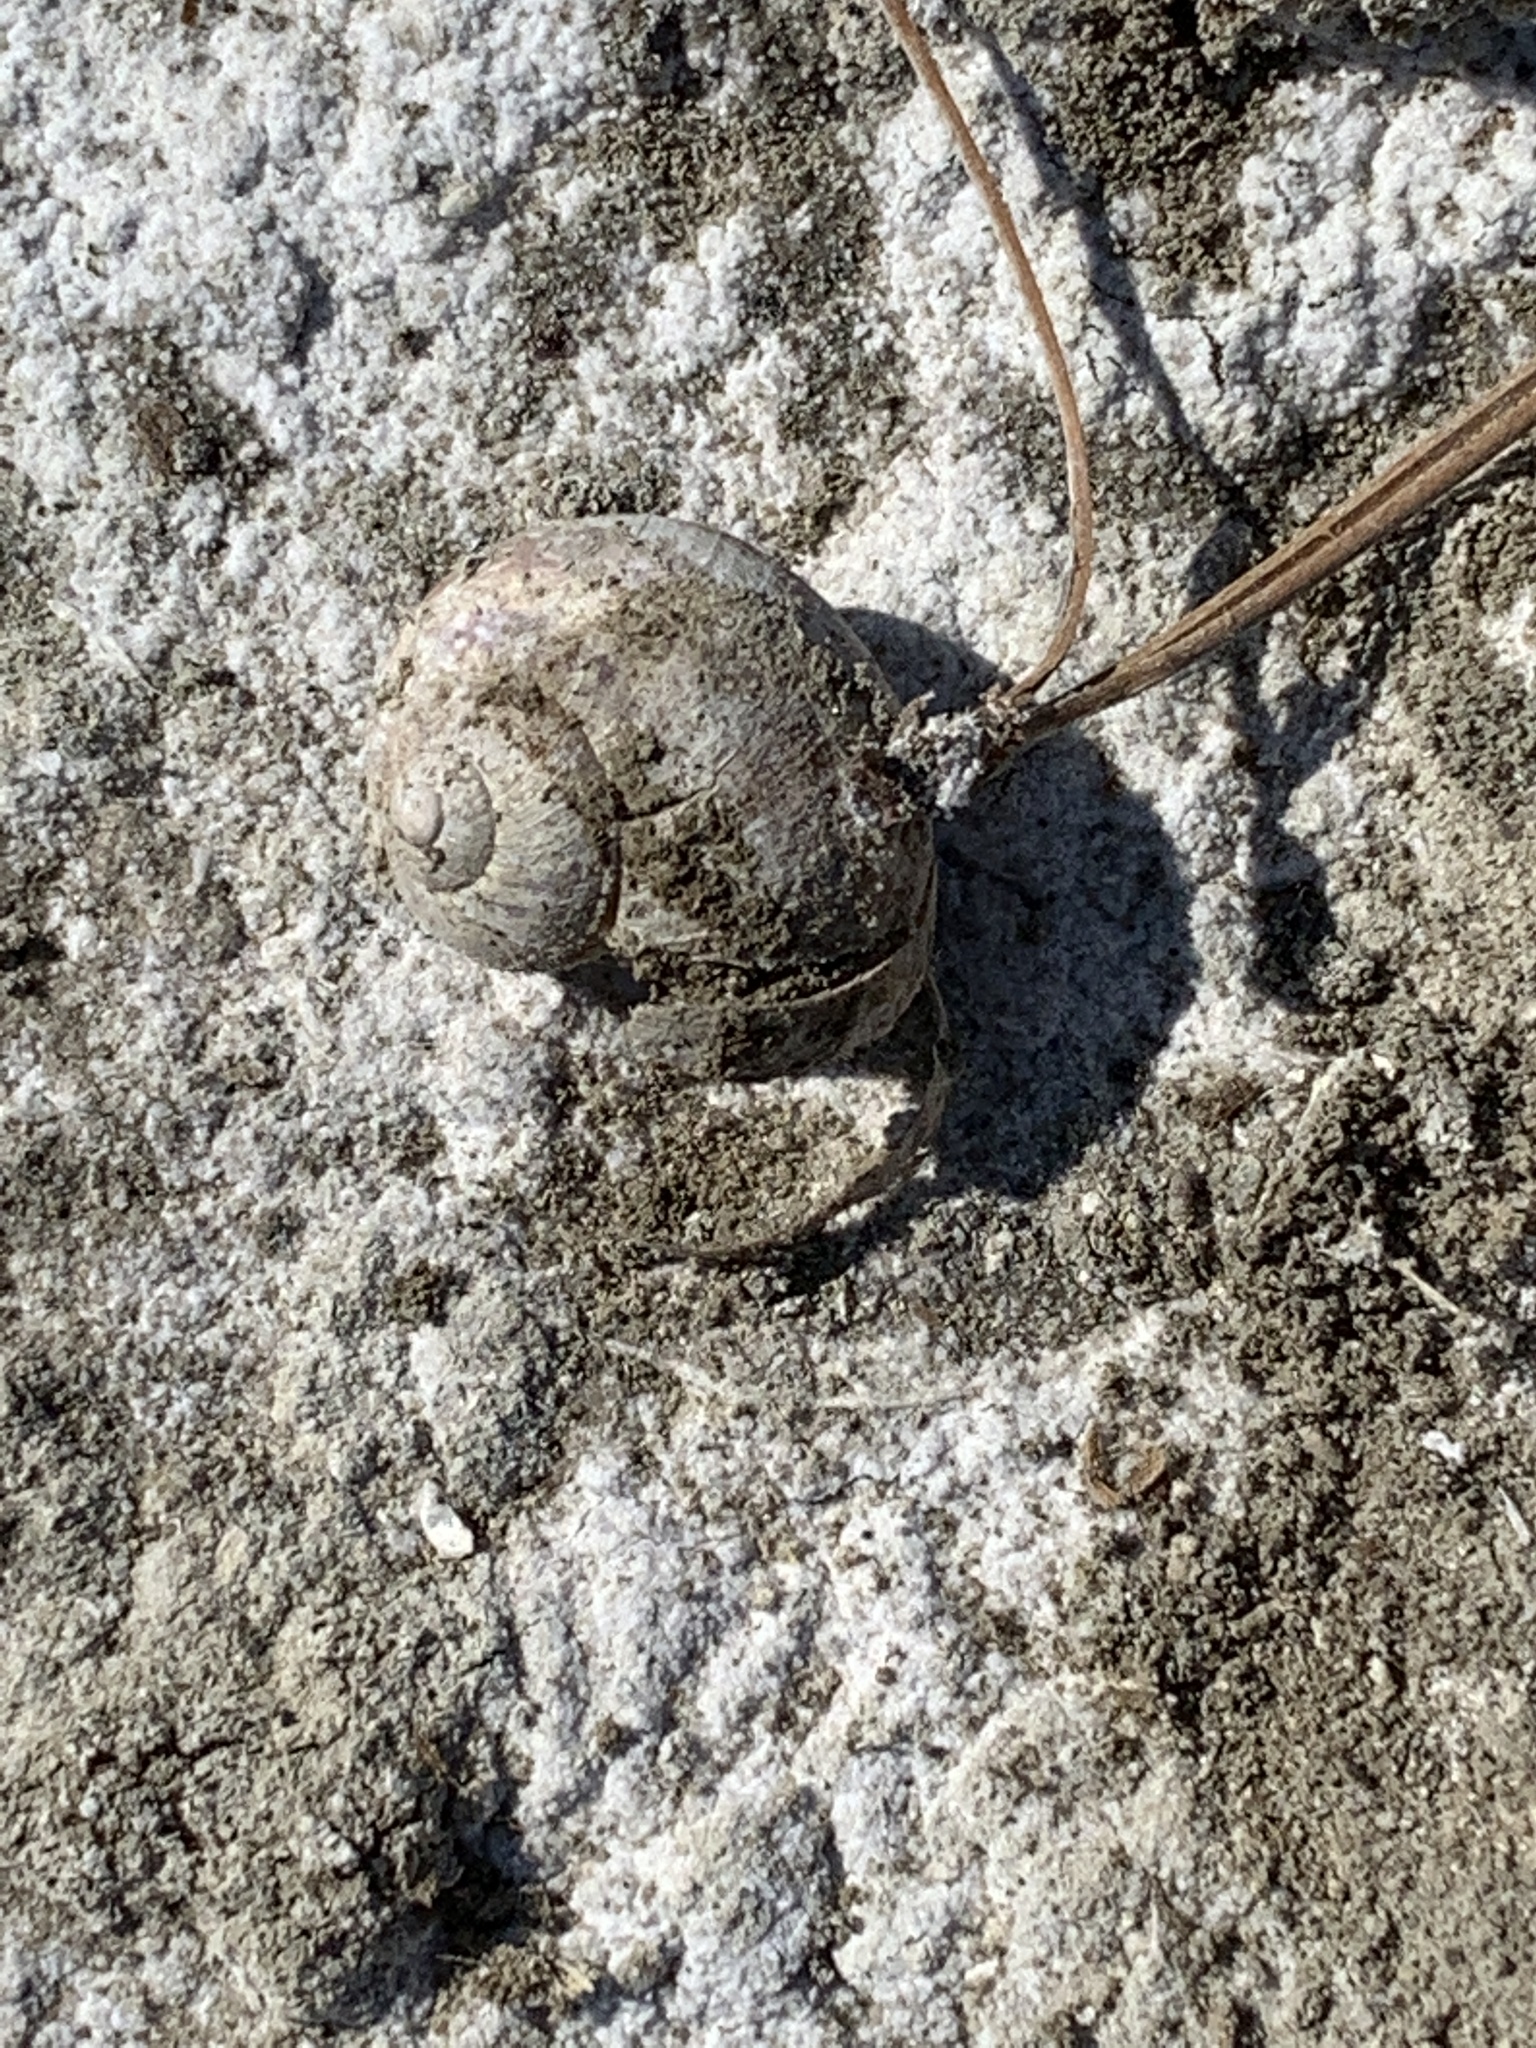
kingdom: Animalia
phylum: Mollusca
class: Gastropoda
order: Stylommatophora
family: Helicidae
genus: Cornu
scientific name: Cornu aspersum
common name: Brown garden snail
